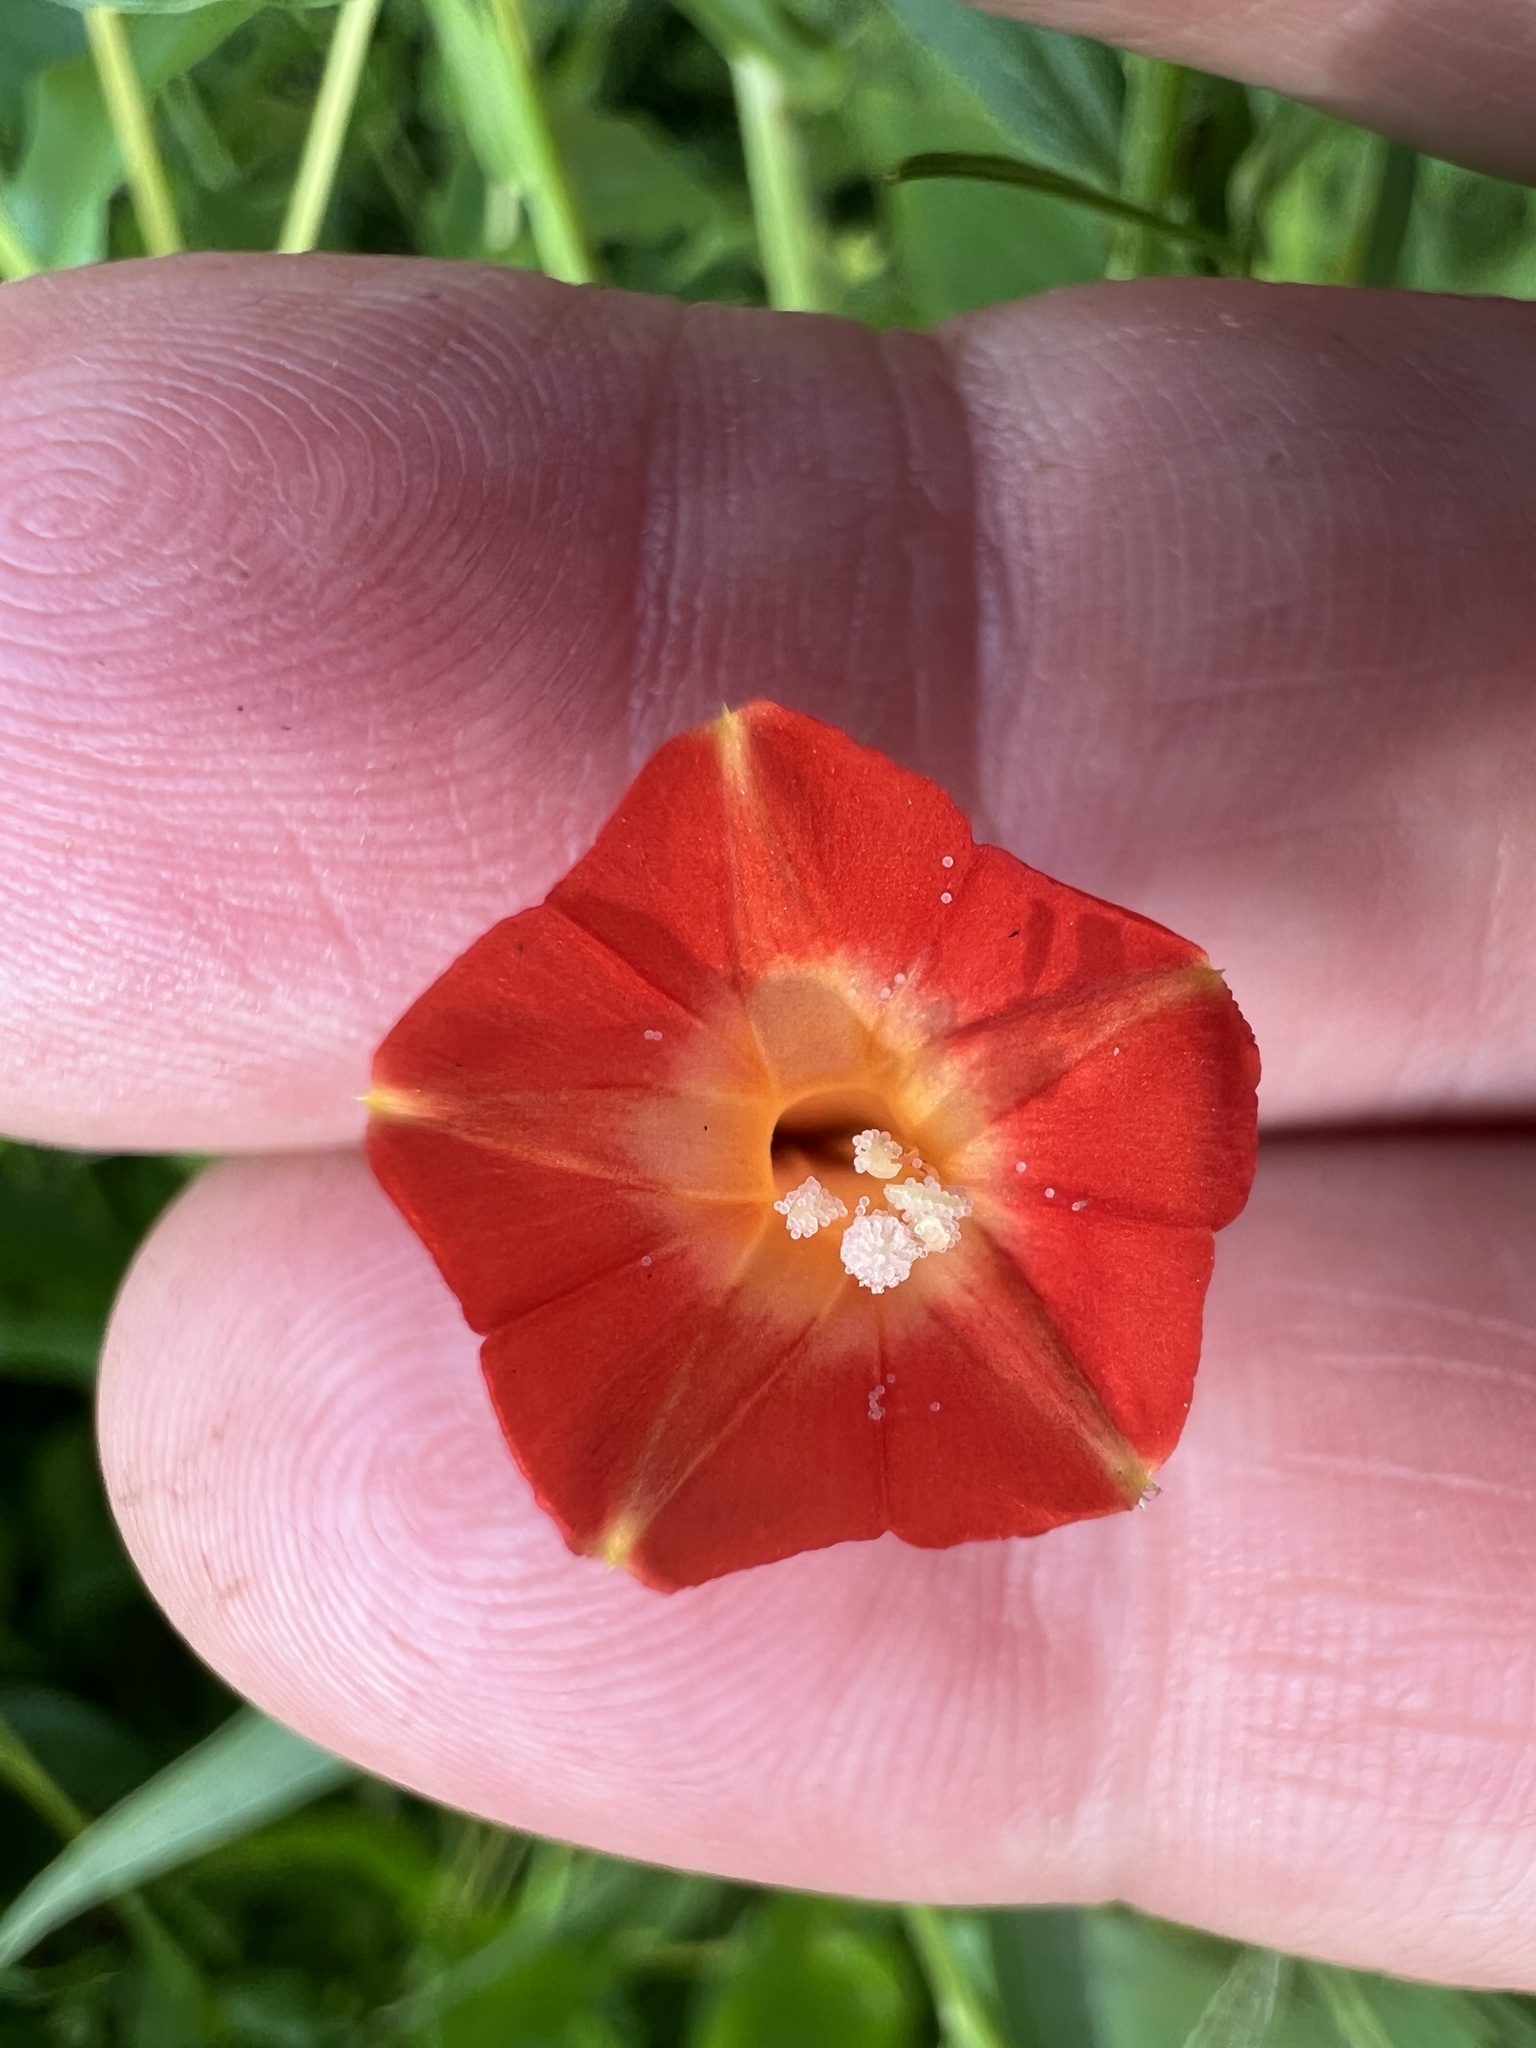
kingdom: Plantae
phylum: Tracheophyta
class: Magnoliopsida
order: Solanales
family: Convolvulaceae
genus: Ipomoea
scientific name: Ipomoea coccinea
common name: Red morning-glory
